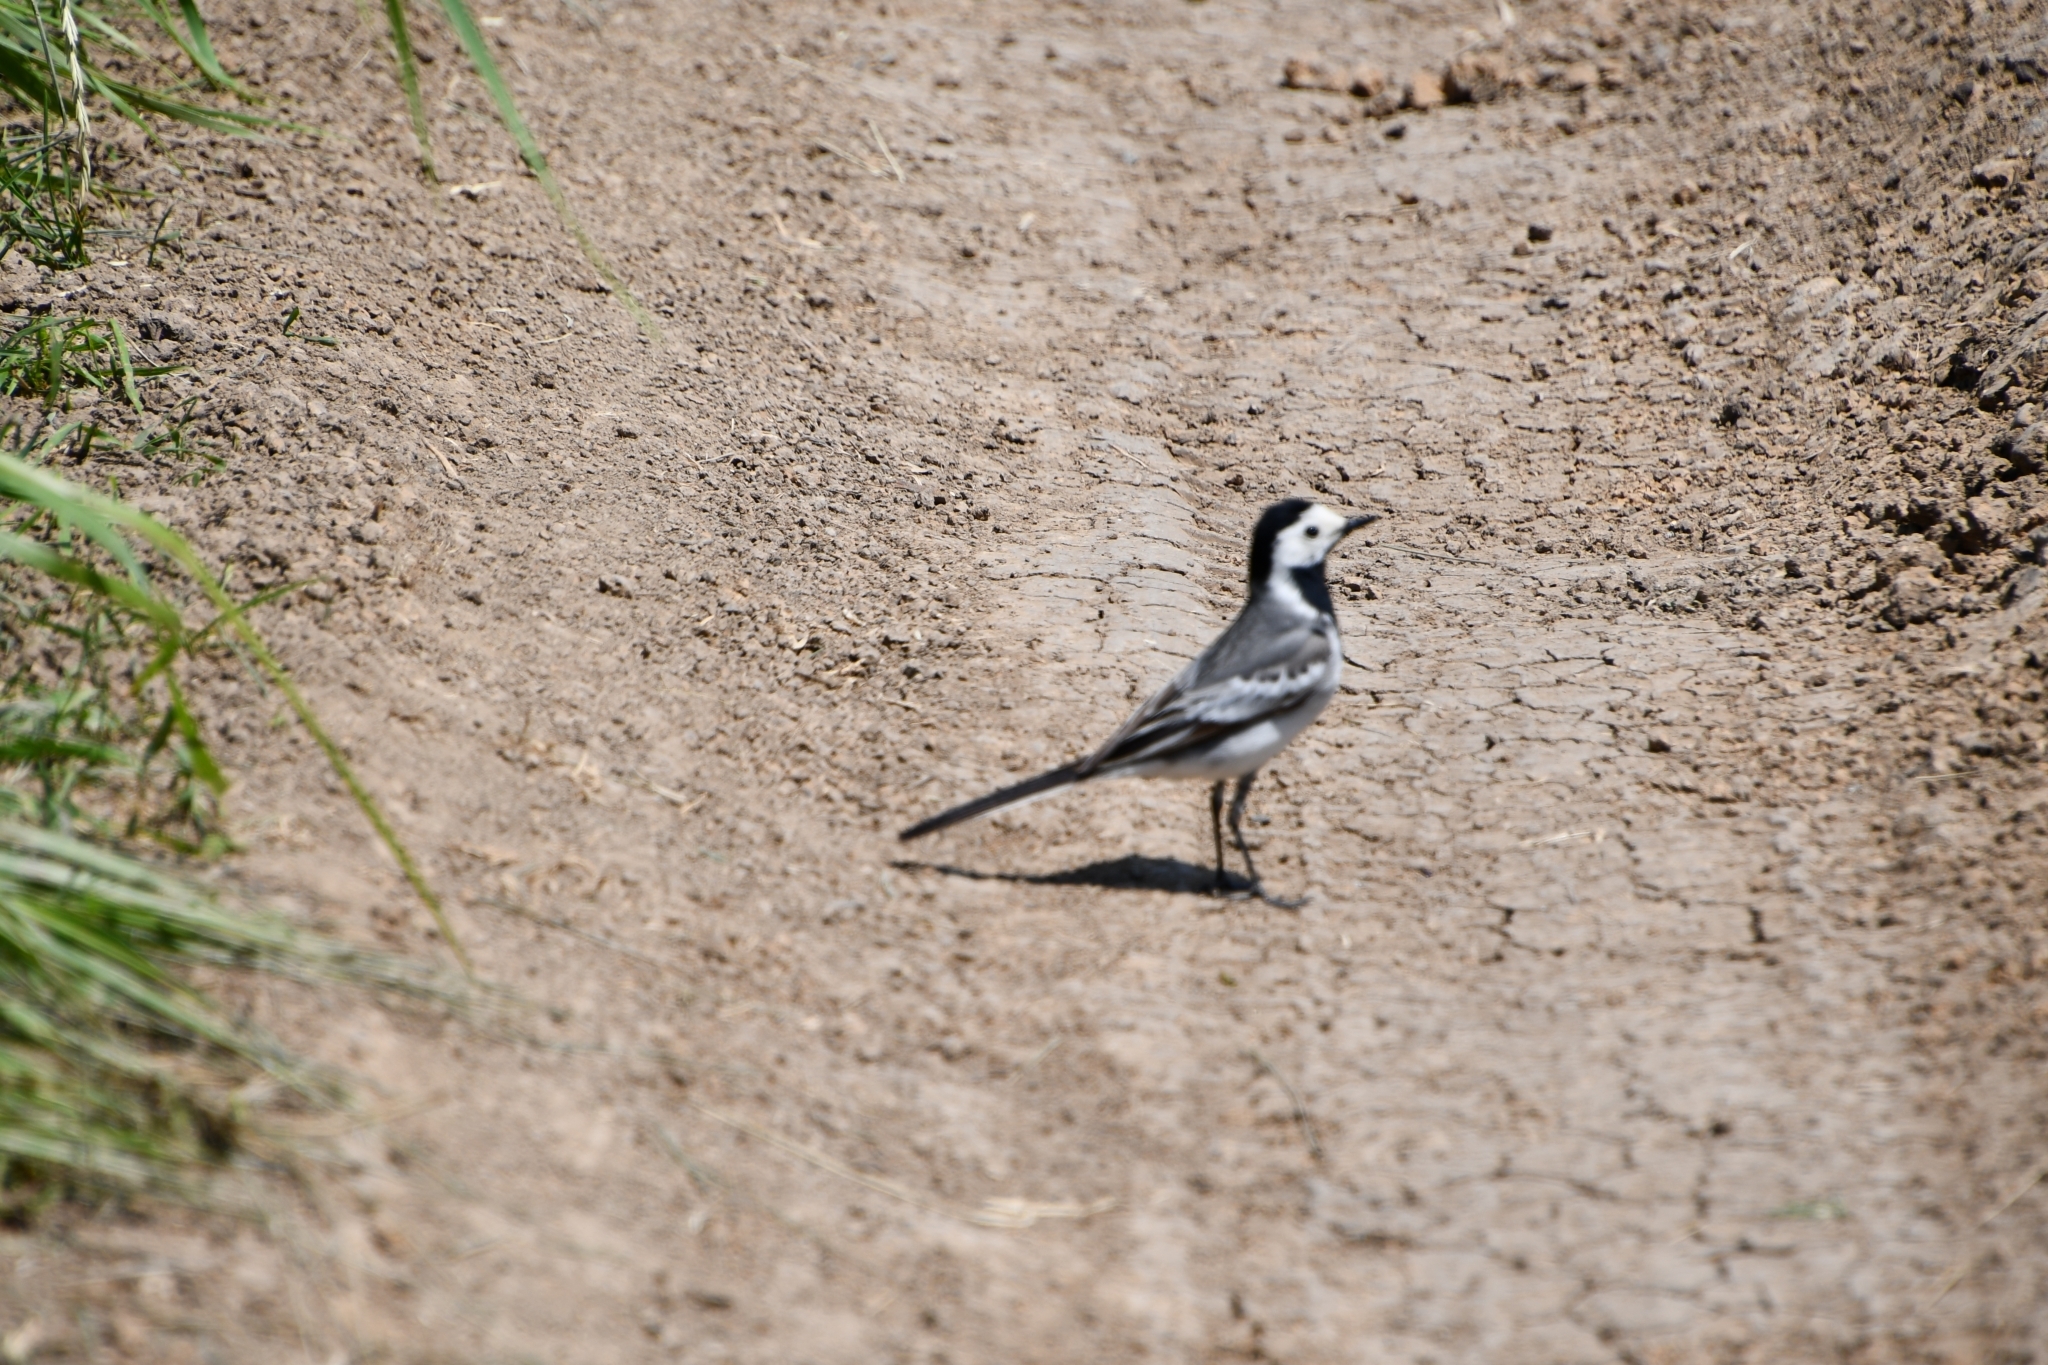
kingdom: Animalia
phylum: Chordata
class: Aves
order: Passeriformes
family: Motacillidae
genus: Motacilla
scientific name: Motacilla alba
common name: White wagtail
